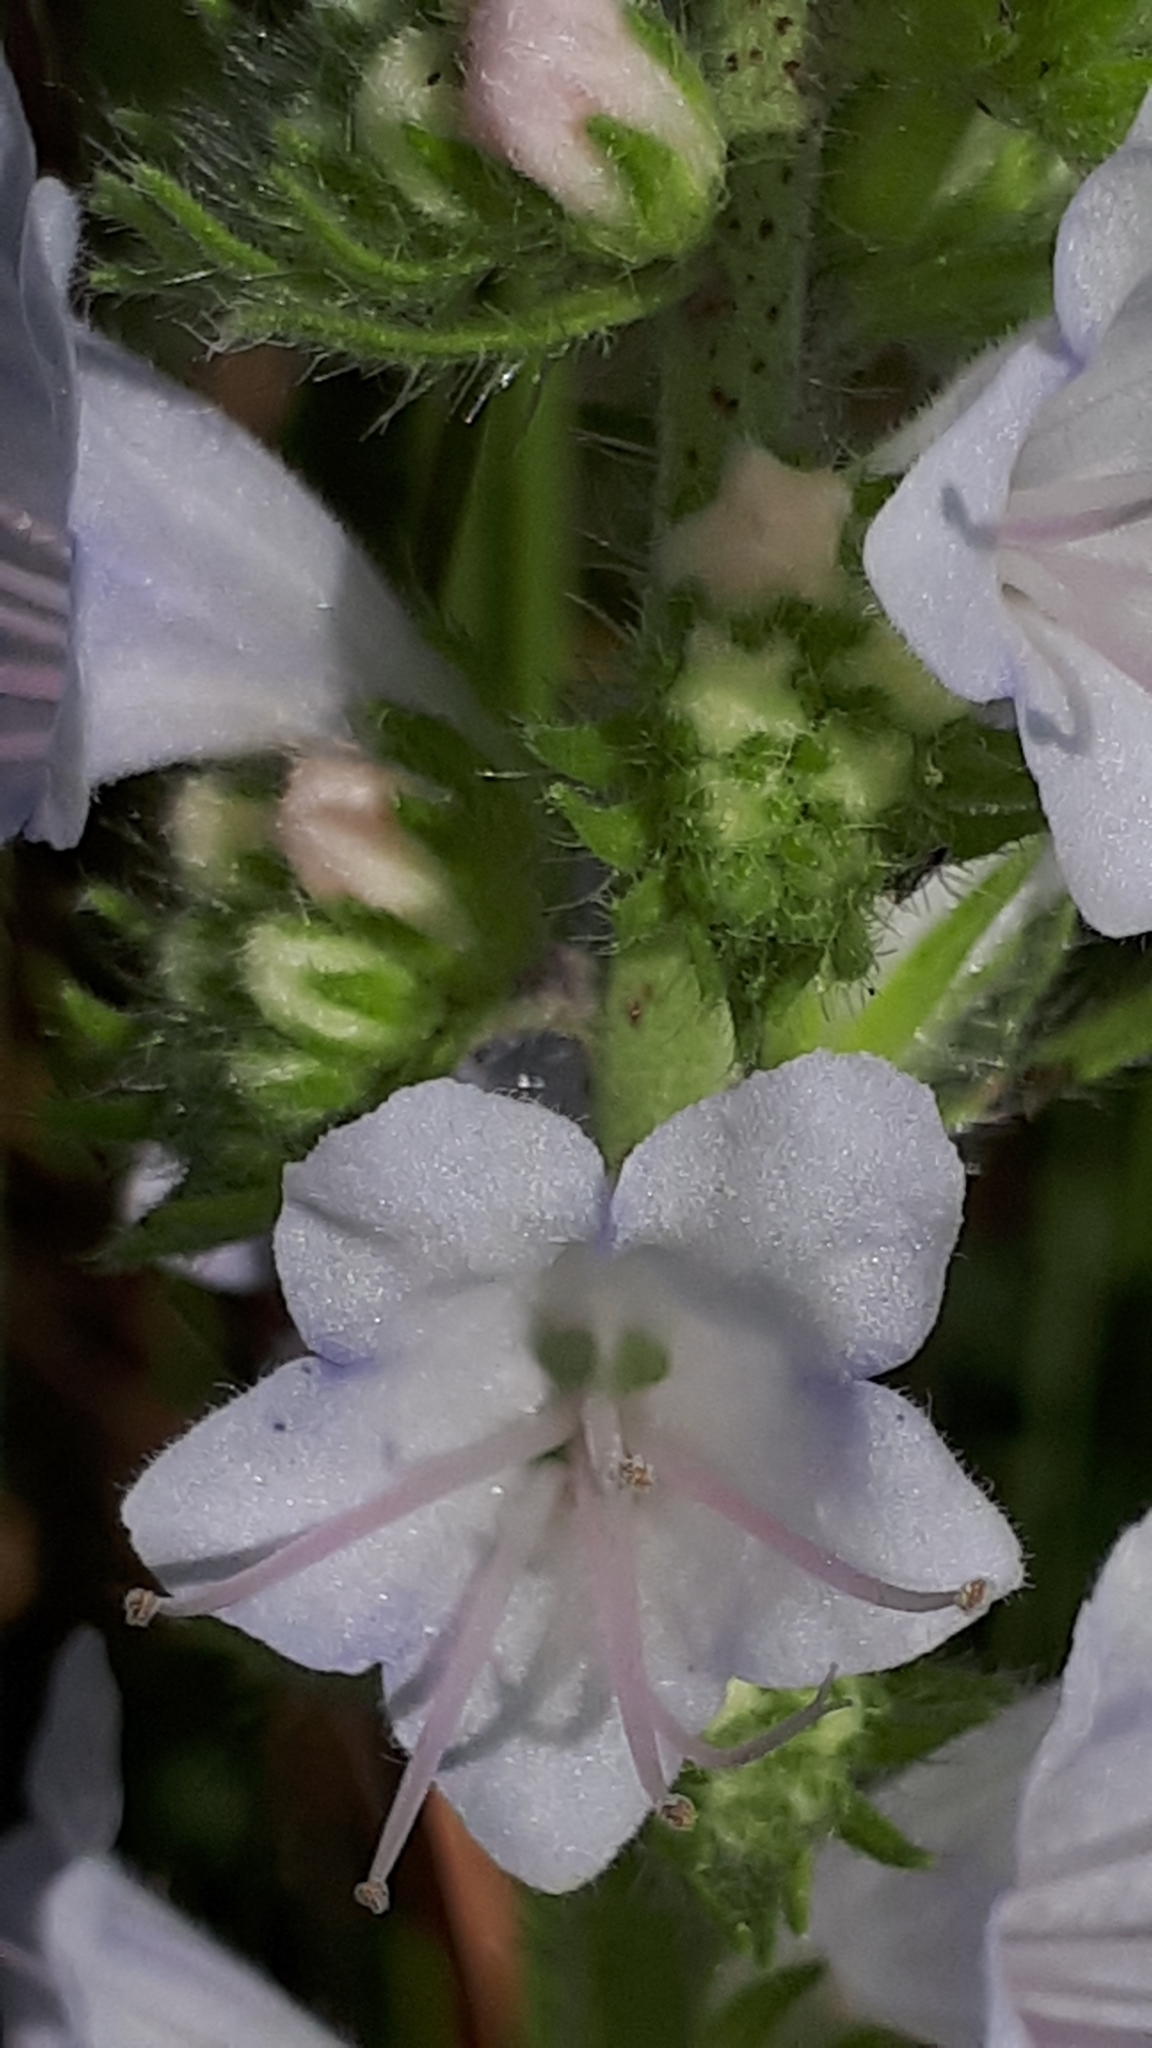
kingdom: Plantae
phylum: Tracheophyta
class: Magnoliopsida
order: Boraginales
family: Boraginaceae
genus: Echium
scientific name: Echium vulgare
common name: Common viper's bugloss
